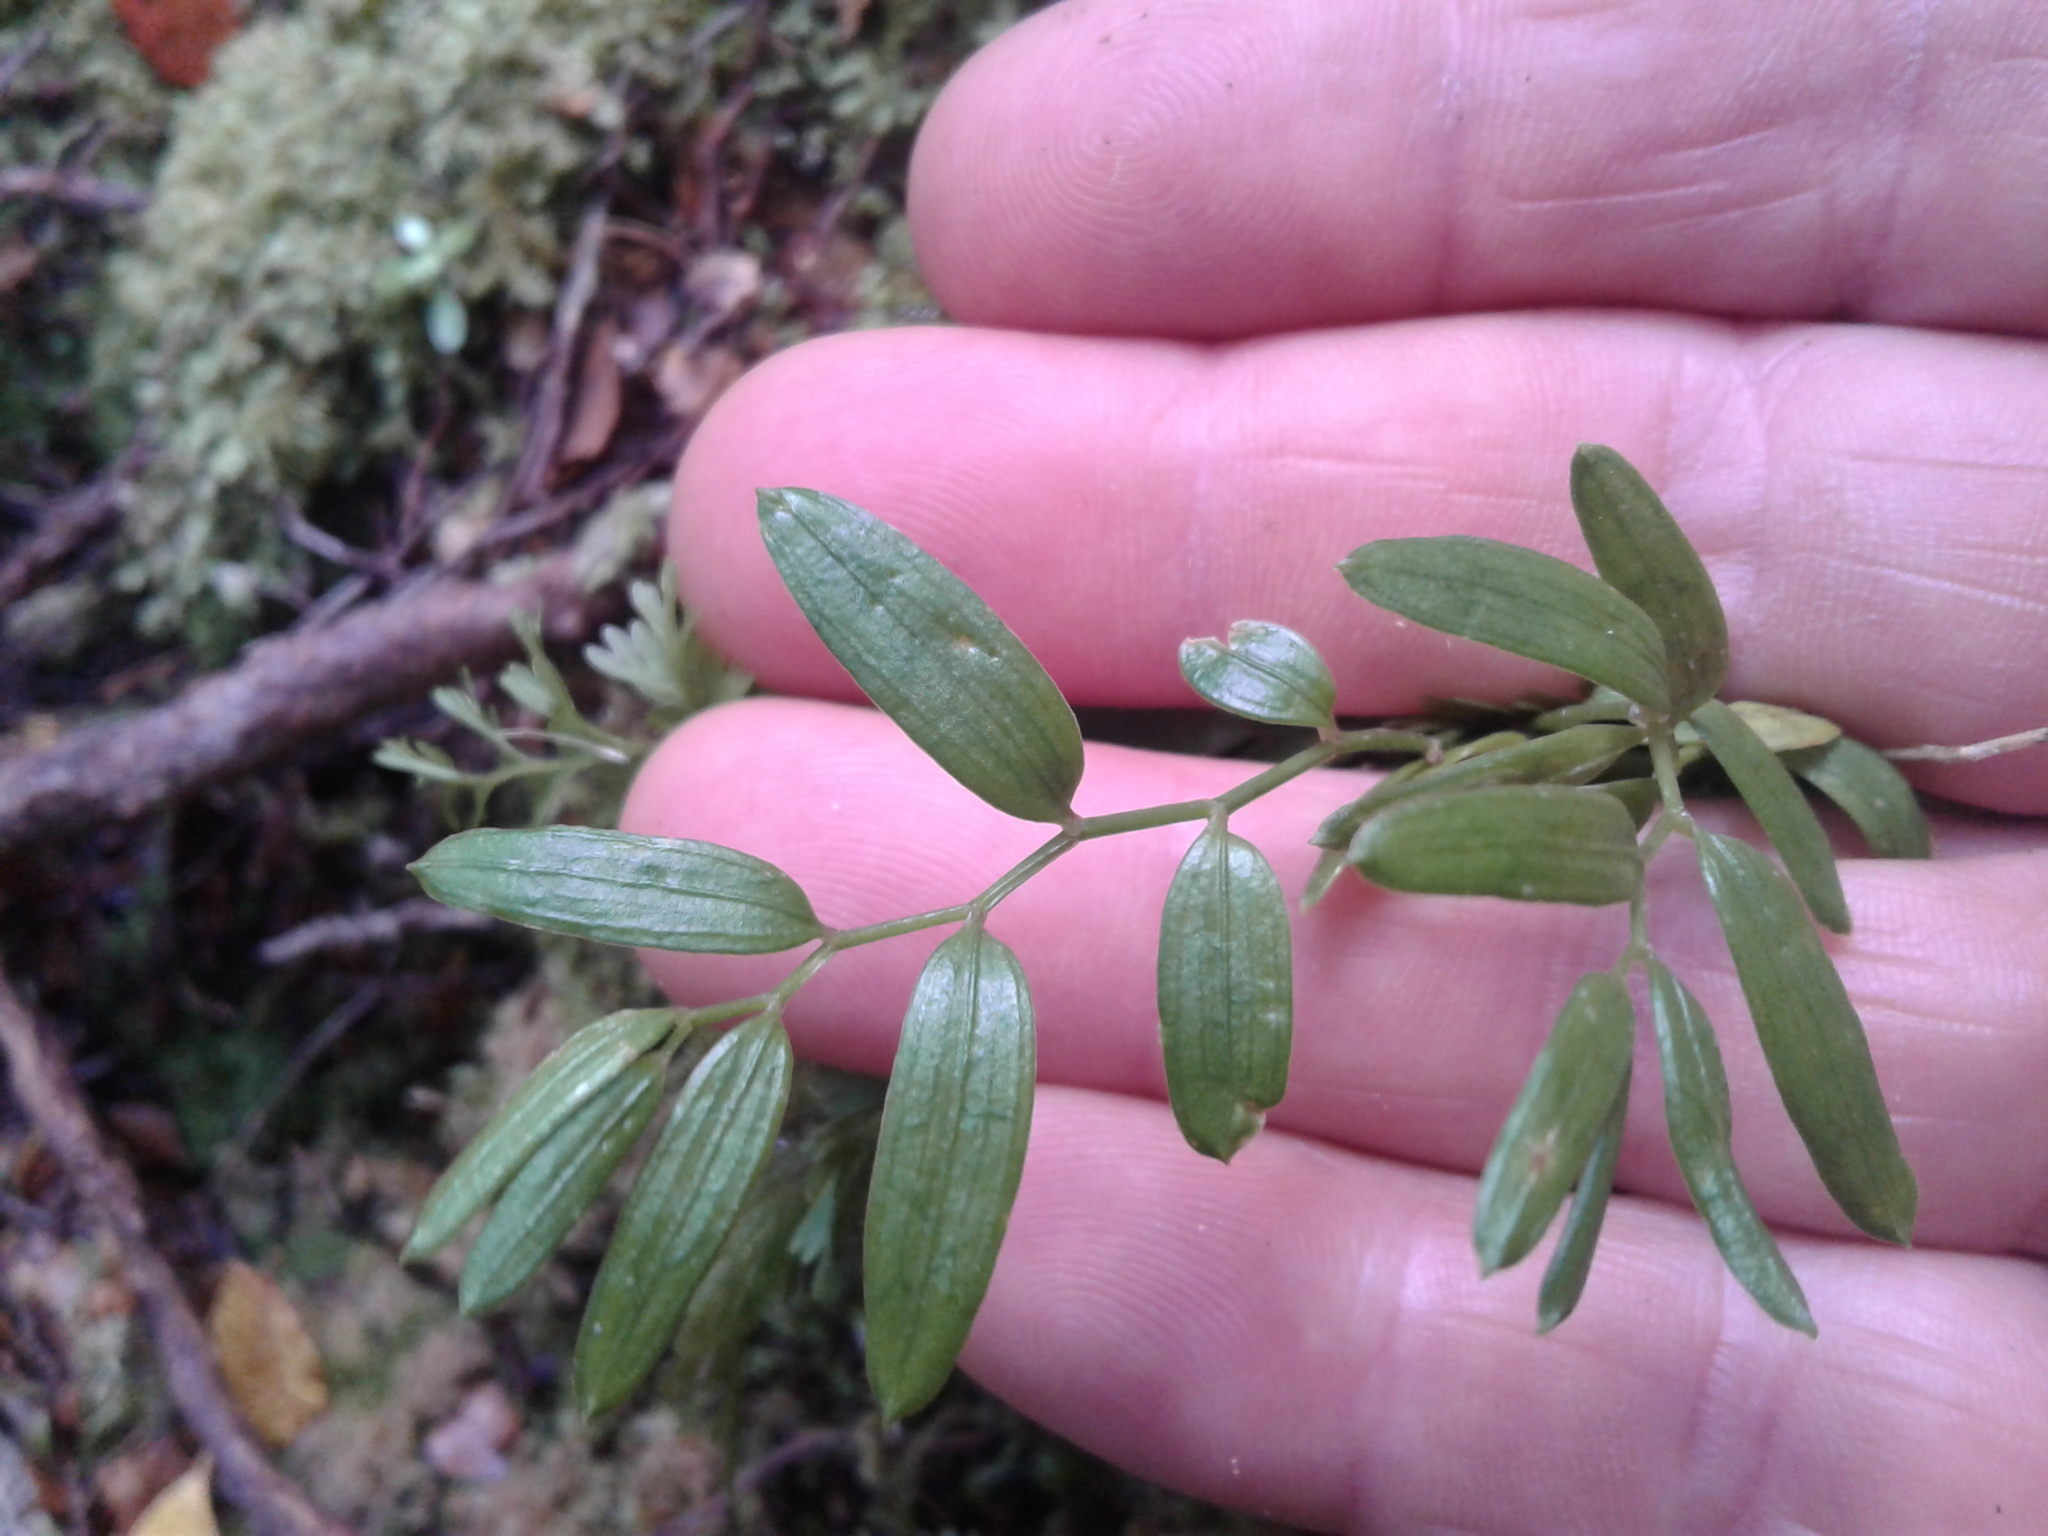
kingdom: Plantae
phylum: Tracheophyta
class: Liliopsida
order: Liliales
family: Alstroemeriaceae
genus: Luzuriaga
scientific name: Luzuriaga parviflora
